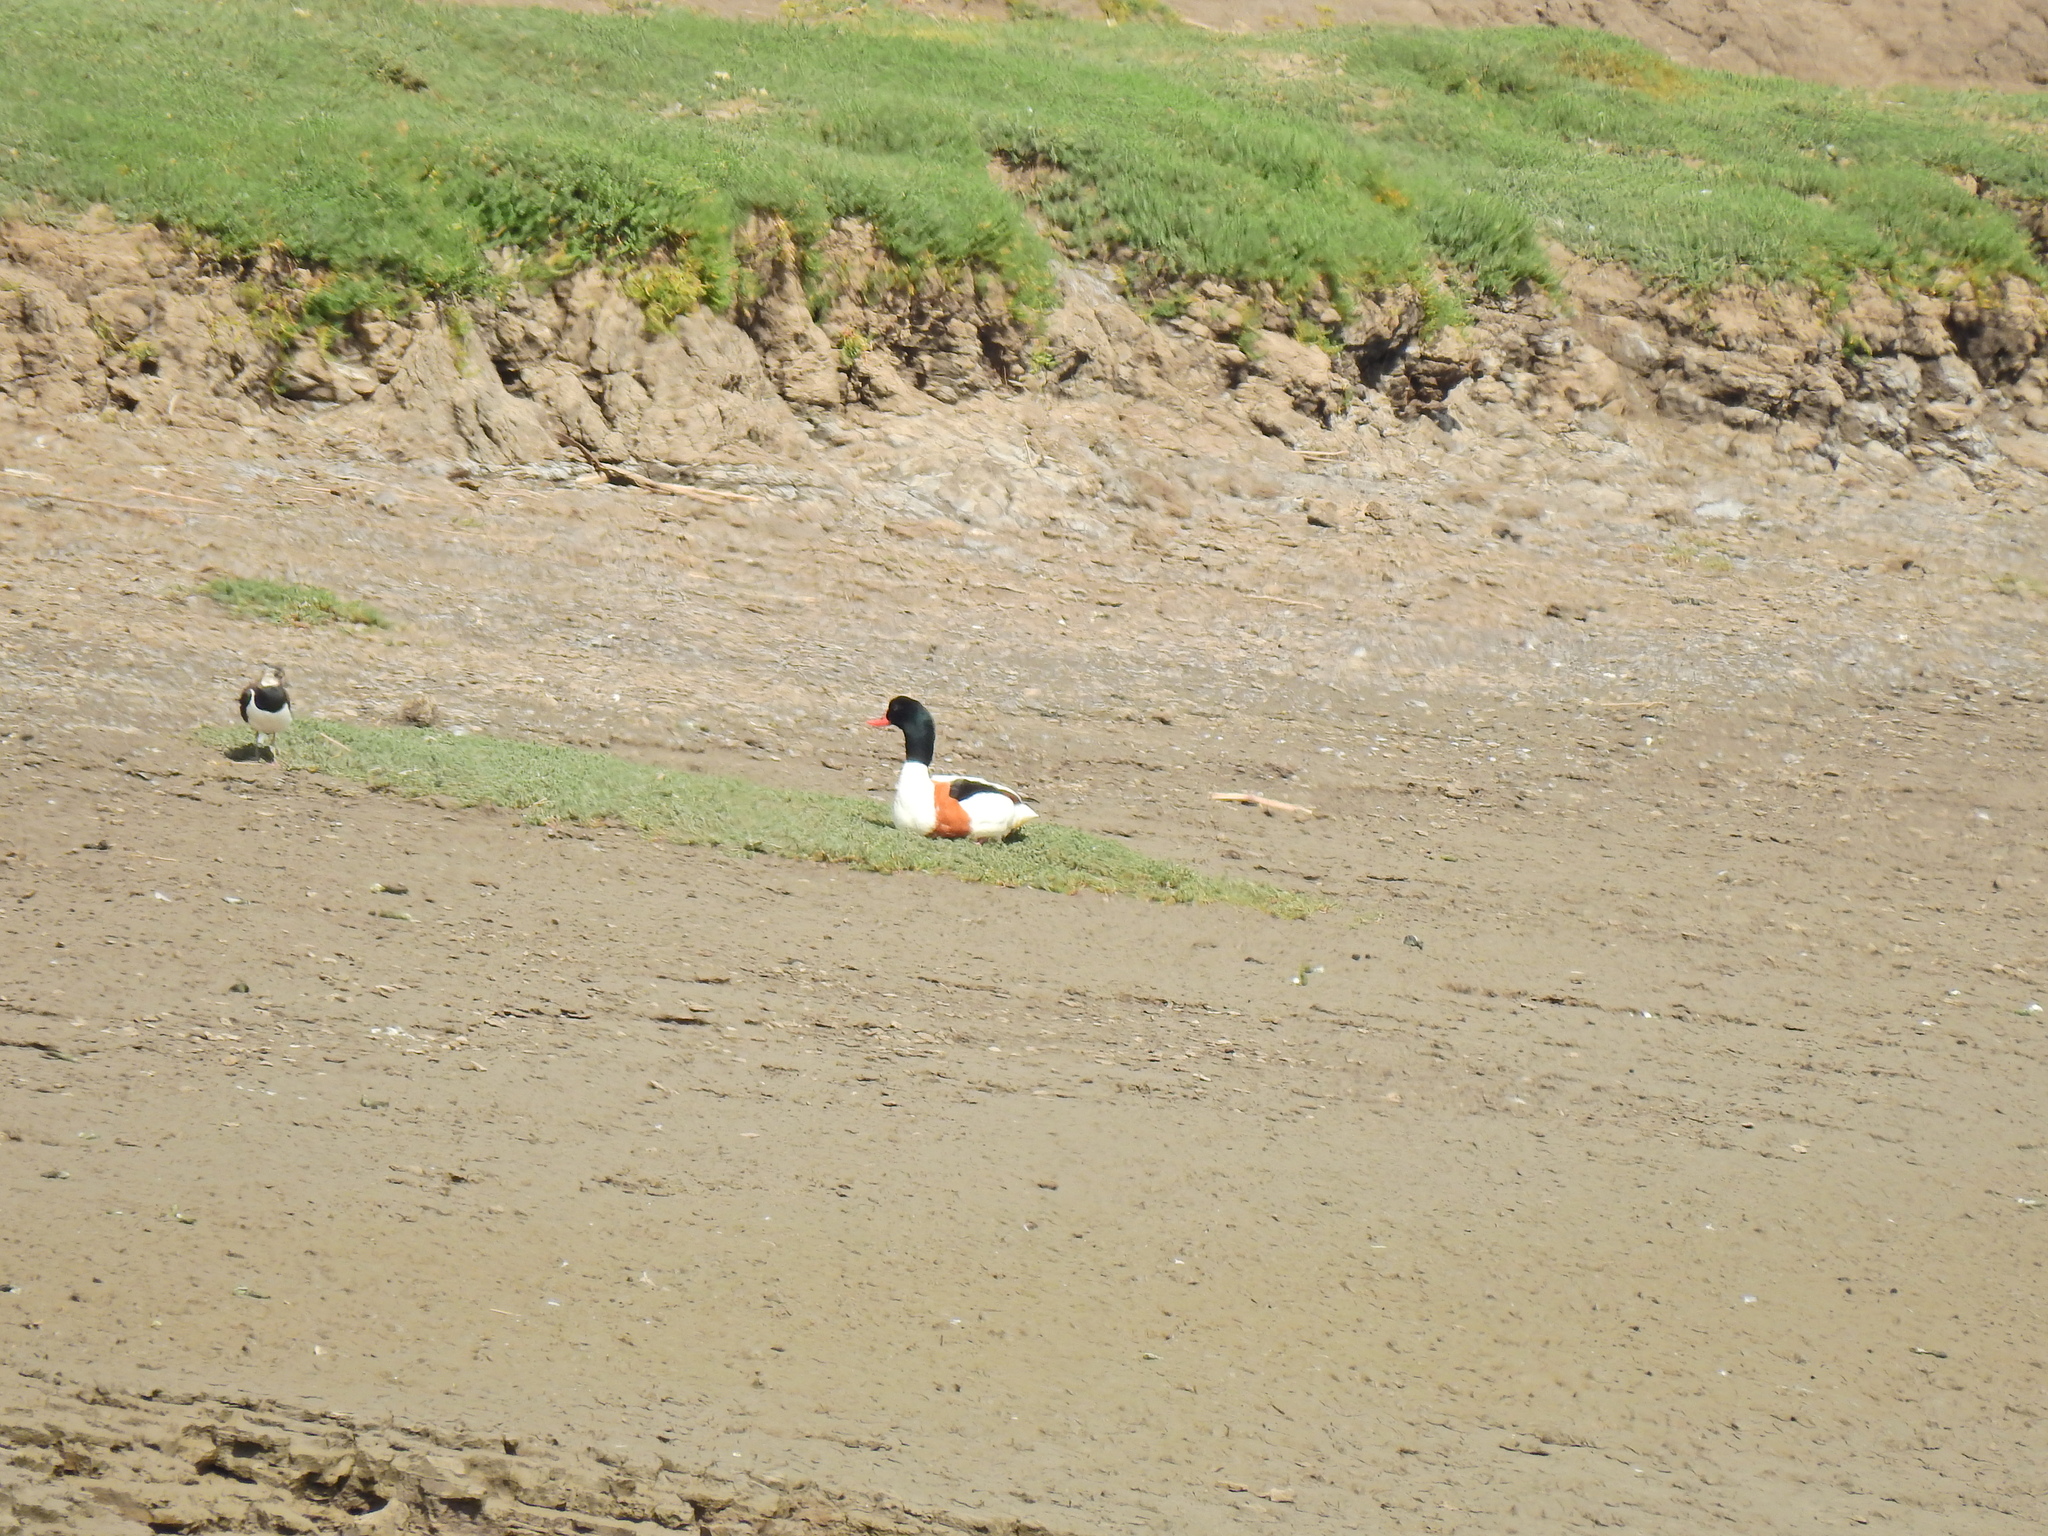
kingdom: Animalia
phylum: Chordata
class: Aves
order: Anseriformes
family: Anatidae
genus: Tadorna
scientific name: Tadorna tadorna
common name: Common shelduck
